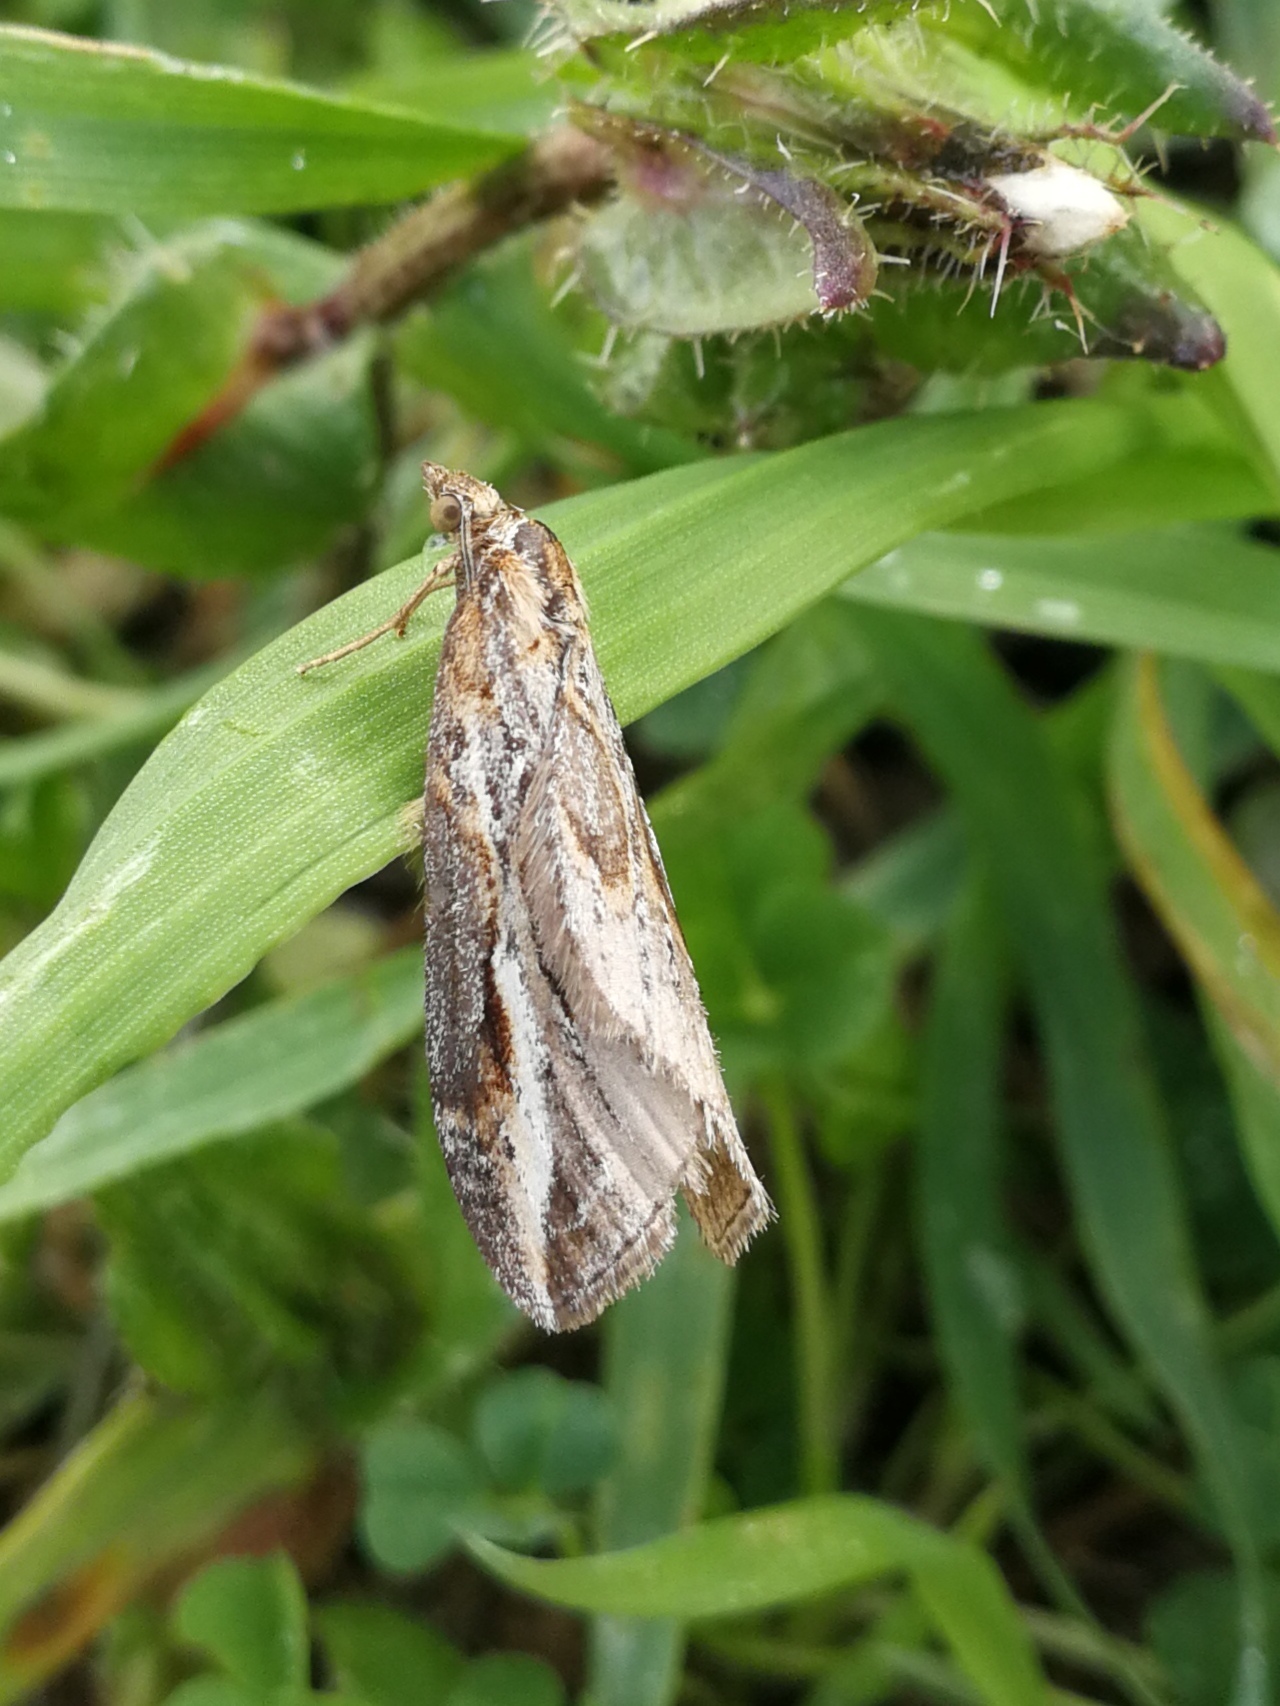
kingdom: Animalia
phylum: Arthropoda
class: Insecta
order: Lepidoptera
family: Geometridae
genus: Chesias
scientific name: Chesias legatella
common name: Streak
